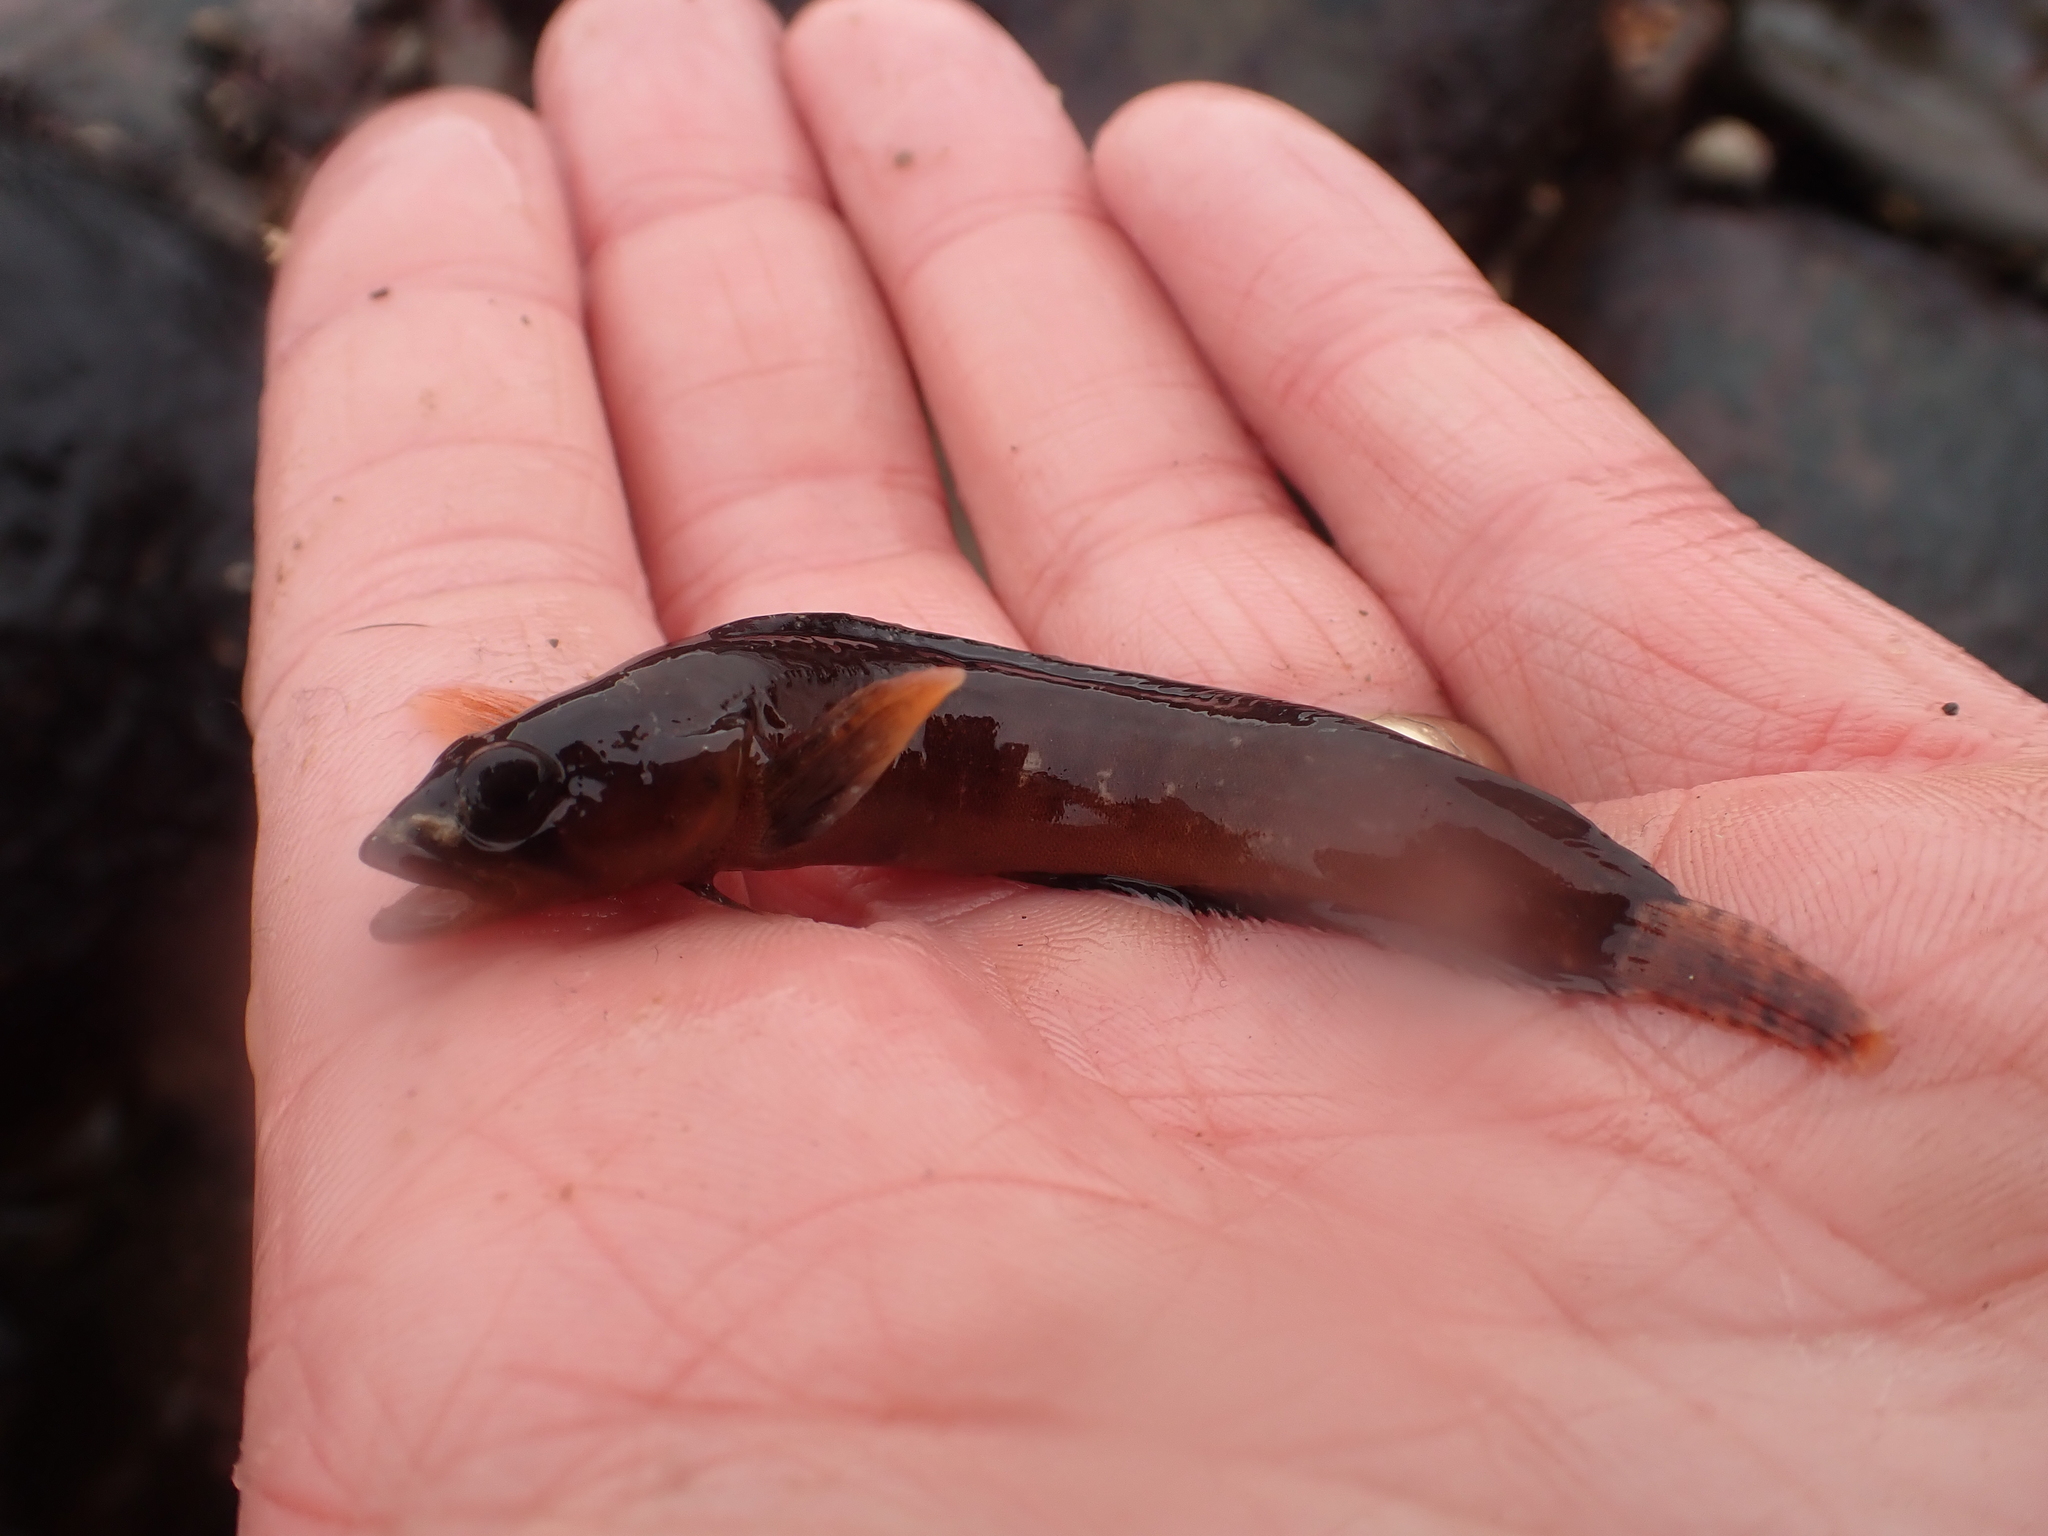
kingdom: Animalia
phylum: Chordata
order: Perciformes
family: Stichaeidae
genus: Ulvaria
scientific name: Ulvaria subbifurcata
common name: Radiated shanny
